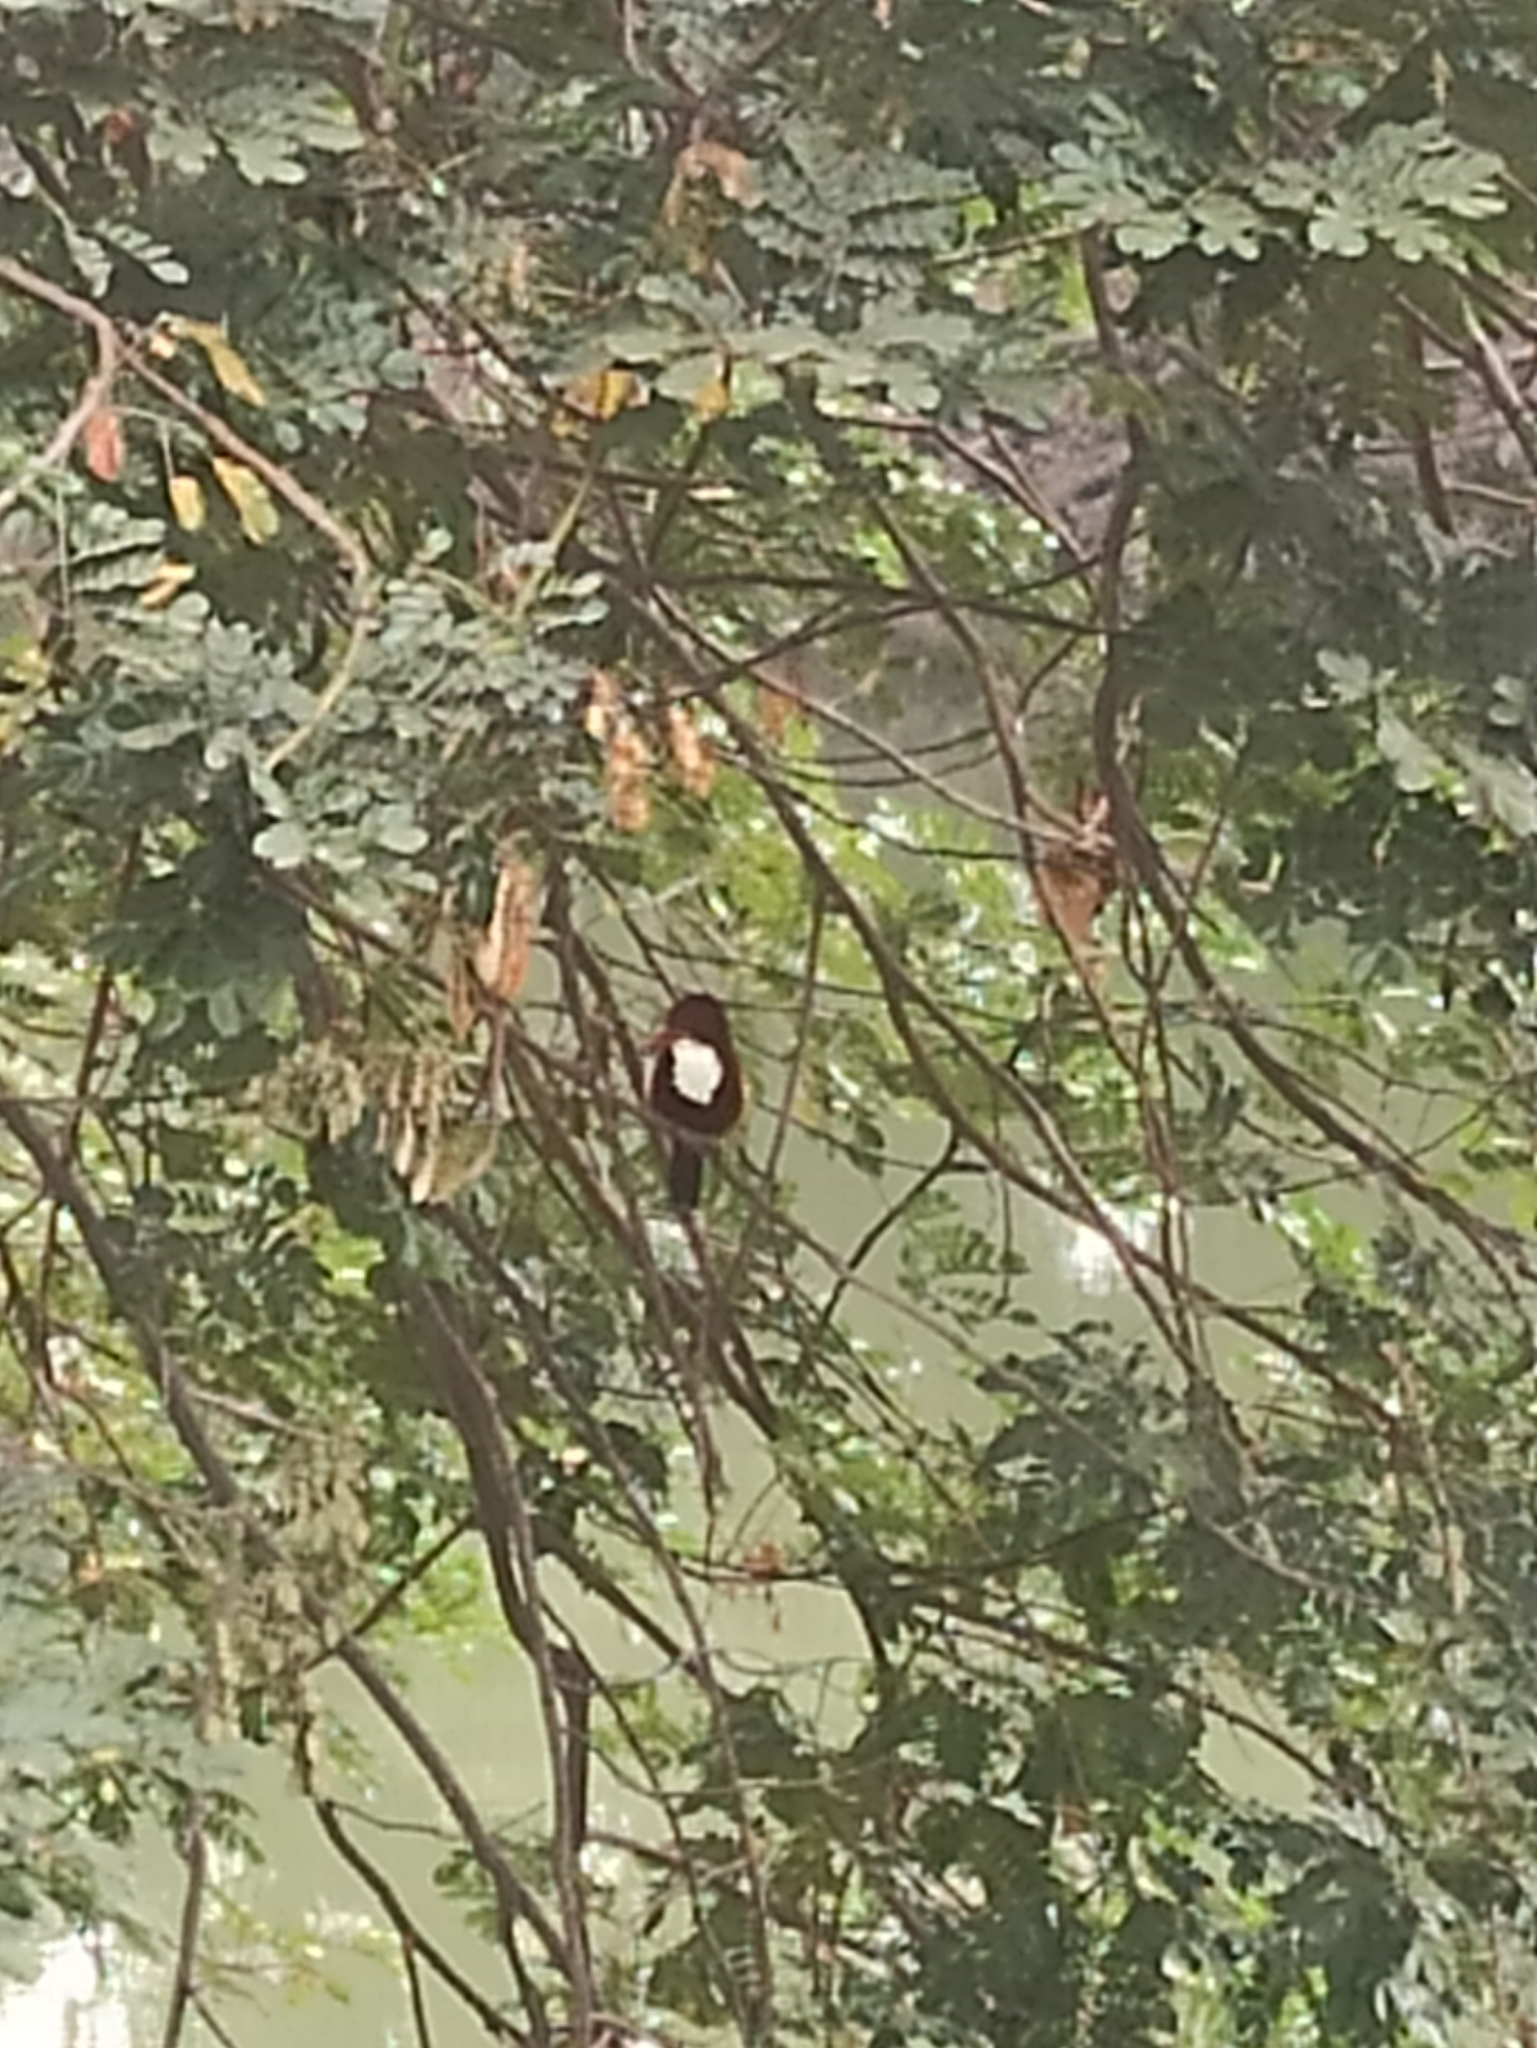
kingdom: Animalia
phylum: Chordata
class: Aves
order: Coraciiformes
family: Alcedinidae
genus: Halcyon
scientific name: Halcyon smyrnensis
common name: White-throated kingfisher
